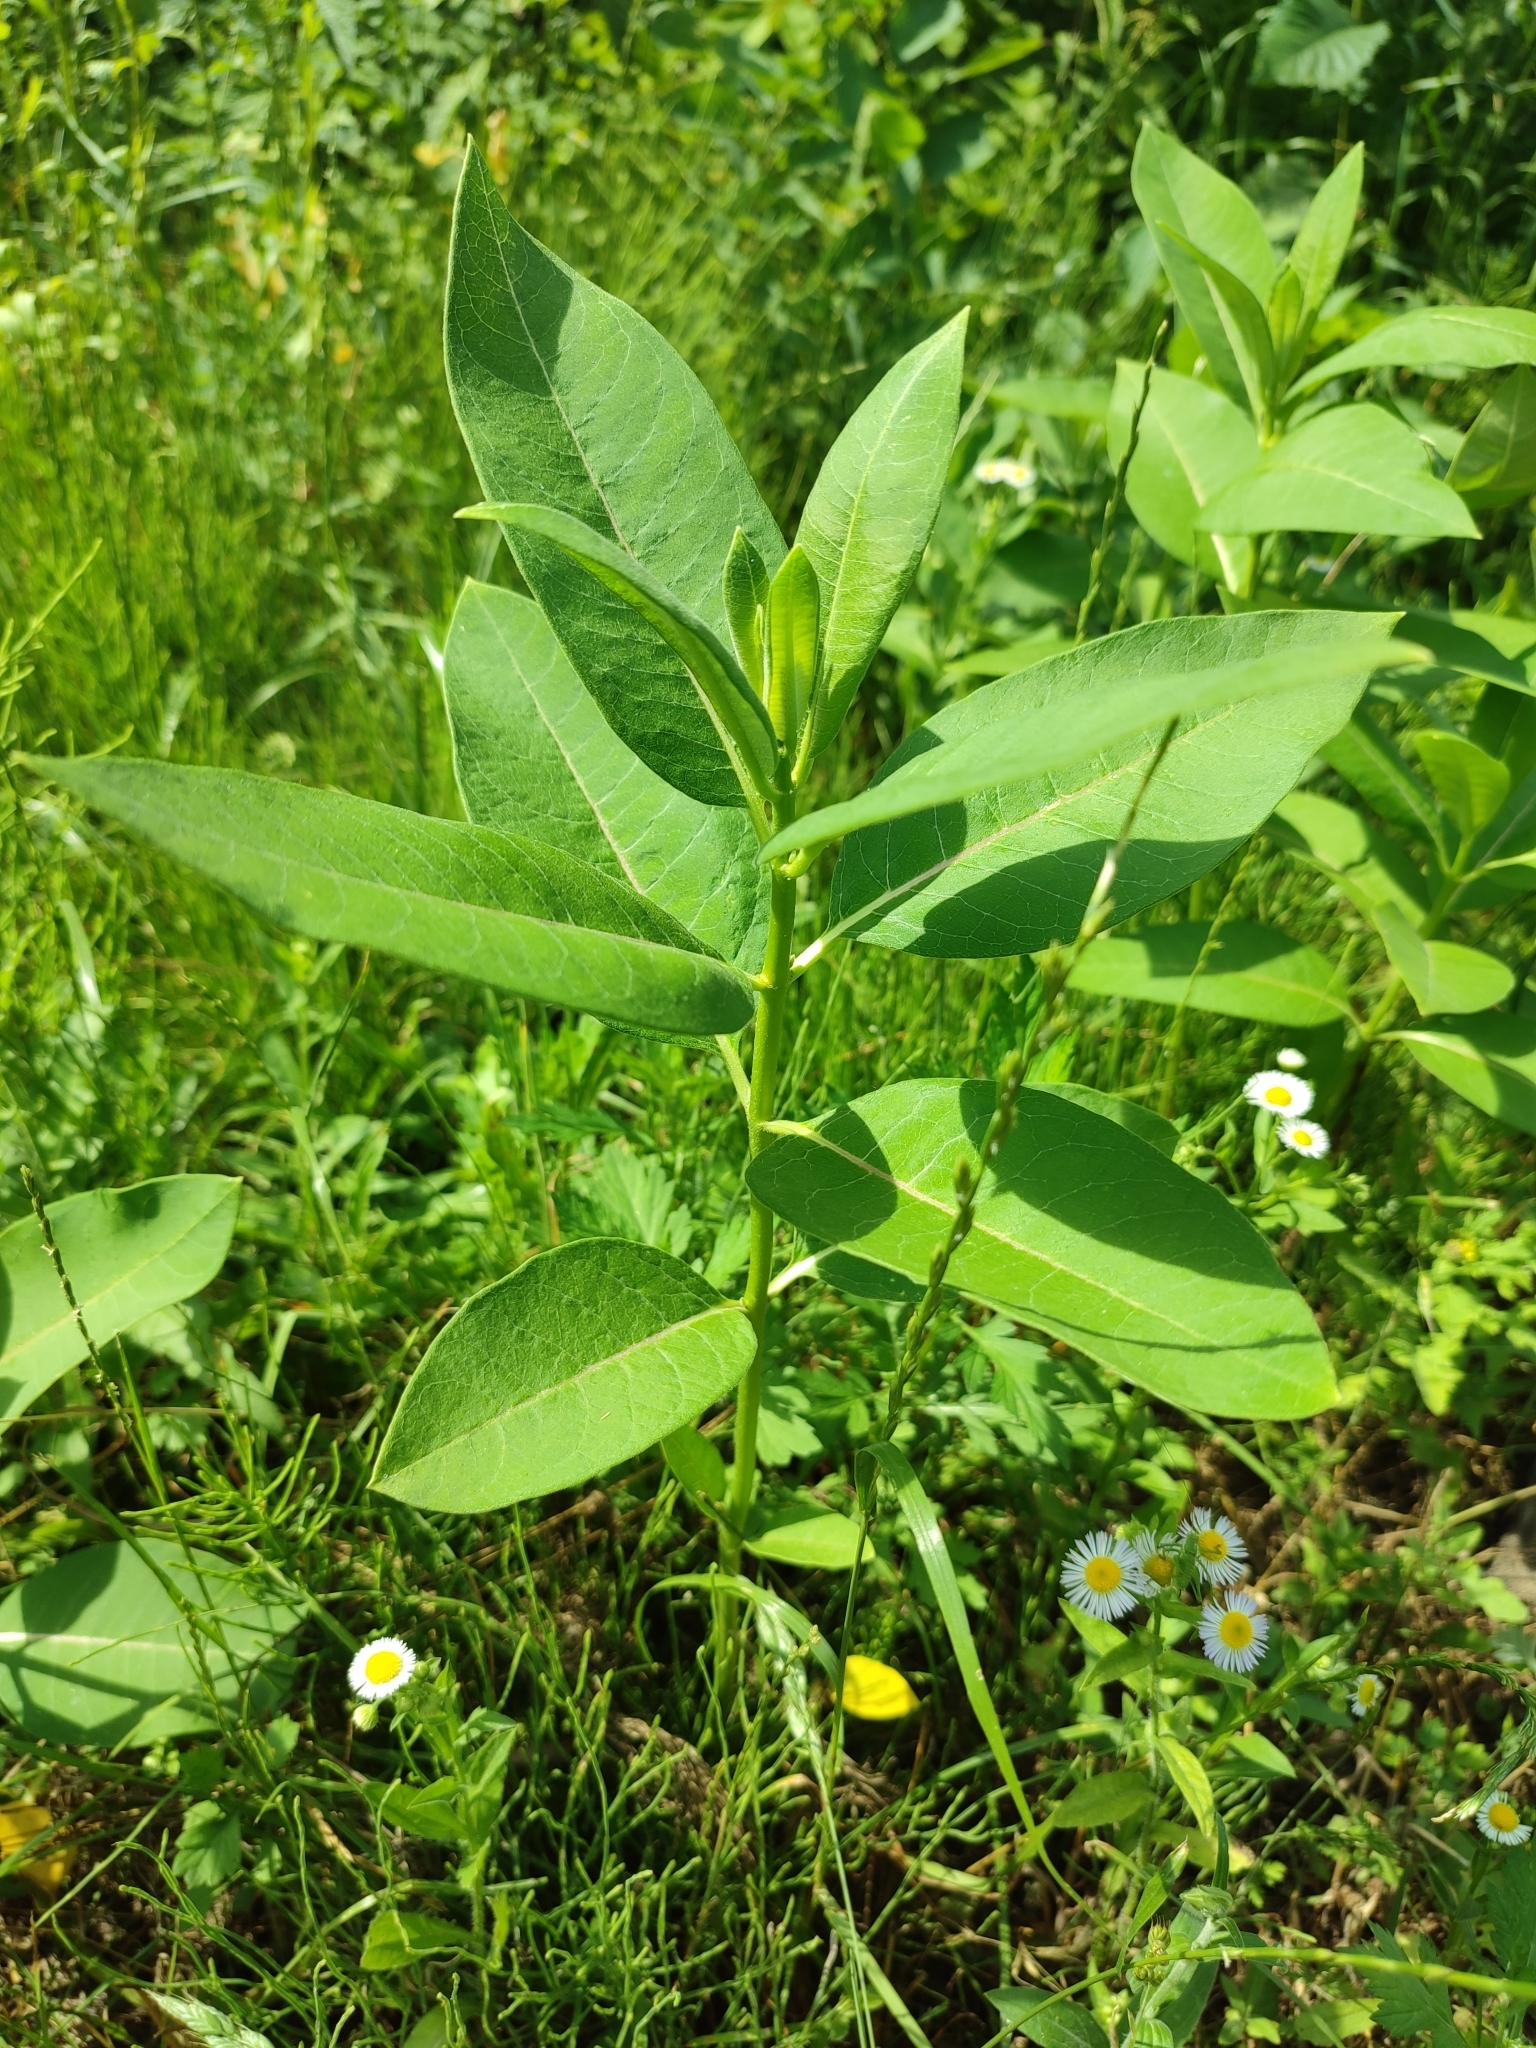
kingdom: Plantae
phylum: Tracheophyta
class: Magnoliopsida
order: Gentianales
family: Apocynaceae
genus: Asclepias
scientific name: Asclepias syriaca
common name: Common milkweed
